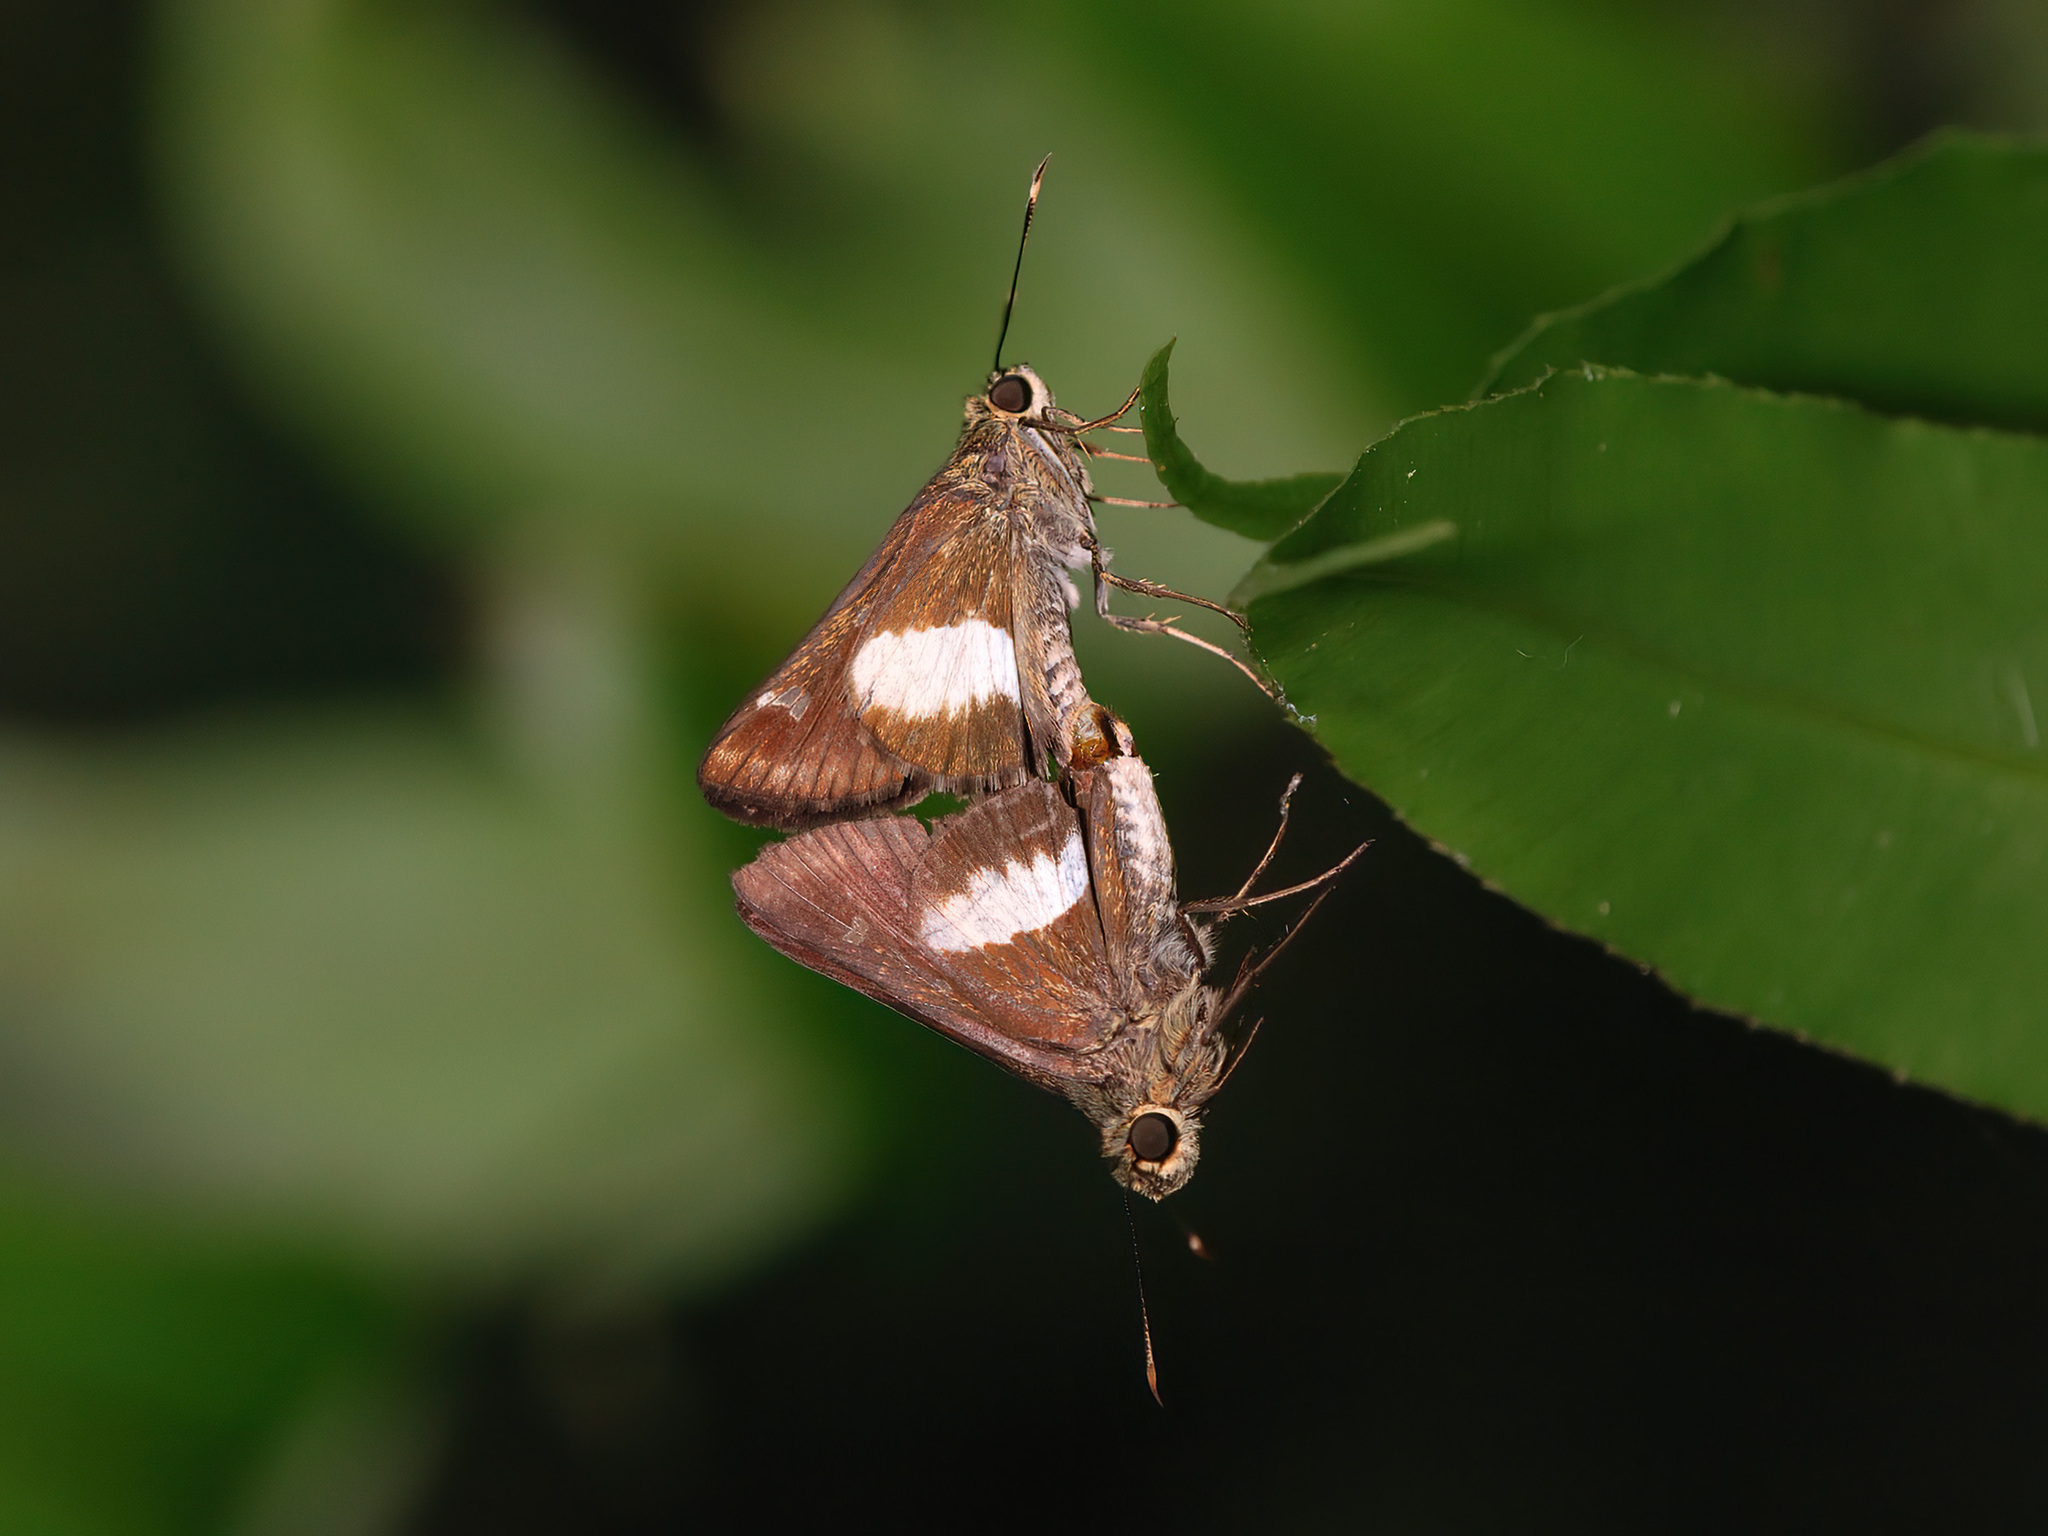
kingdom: Animalia
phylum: Arthropoda
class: Insecta
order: Lepidoptera
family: Hesperiidae
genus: Halpe
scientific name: Halpe
